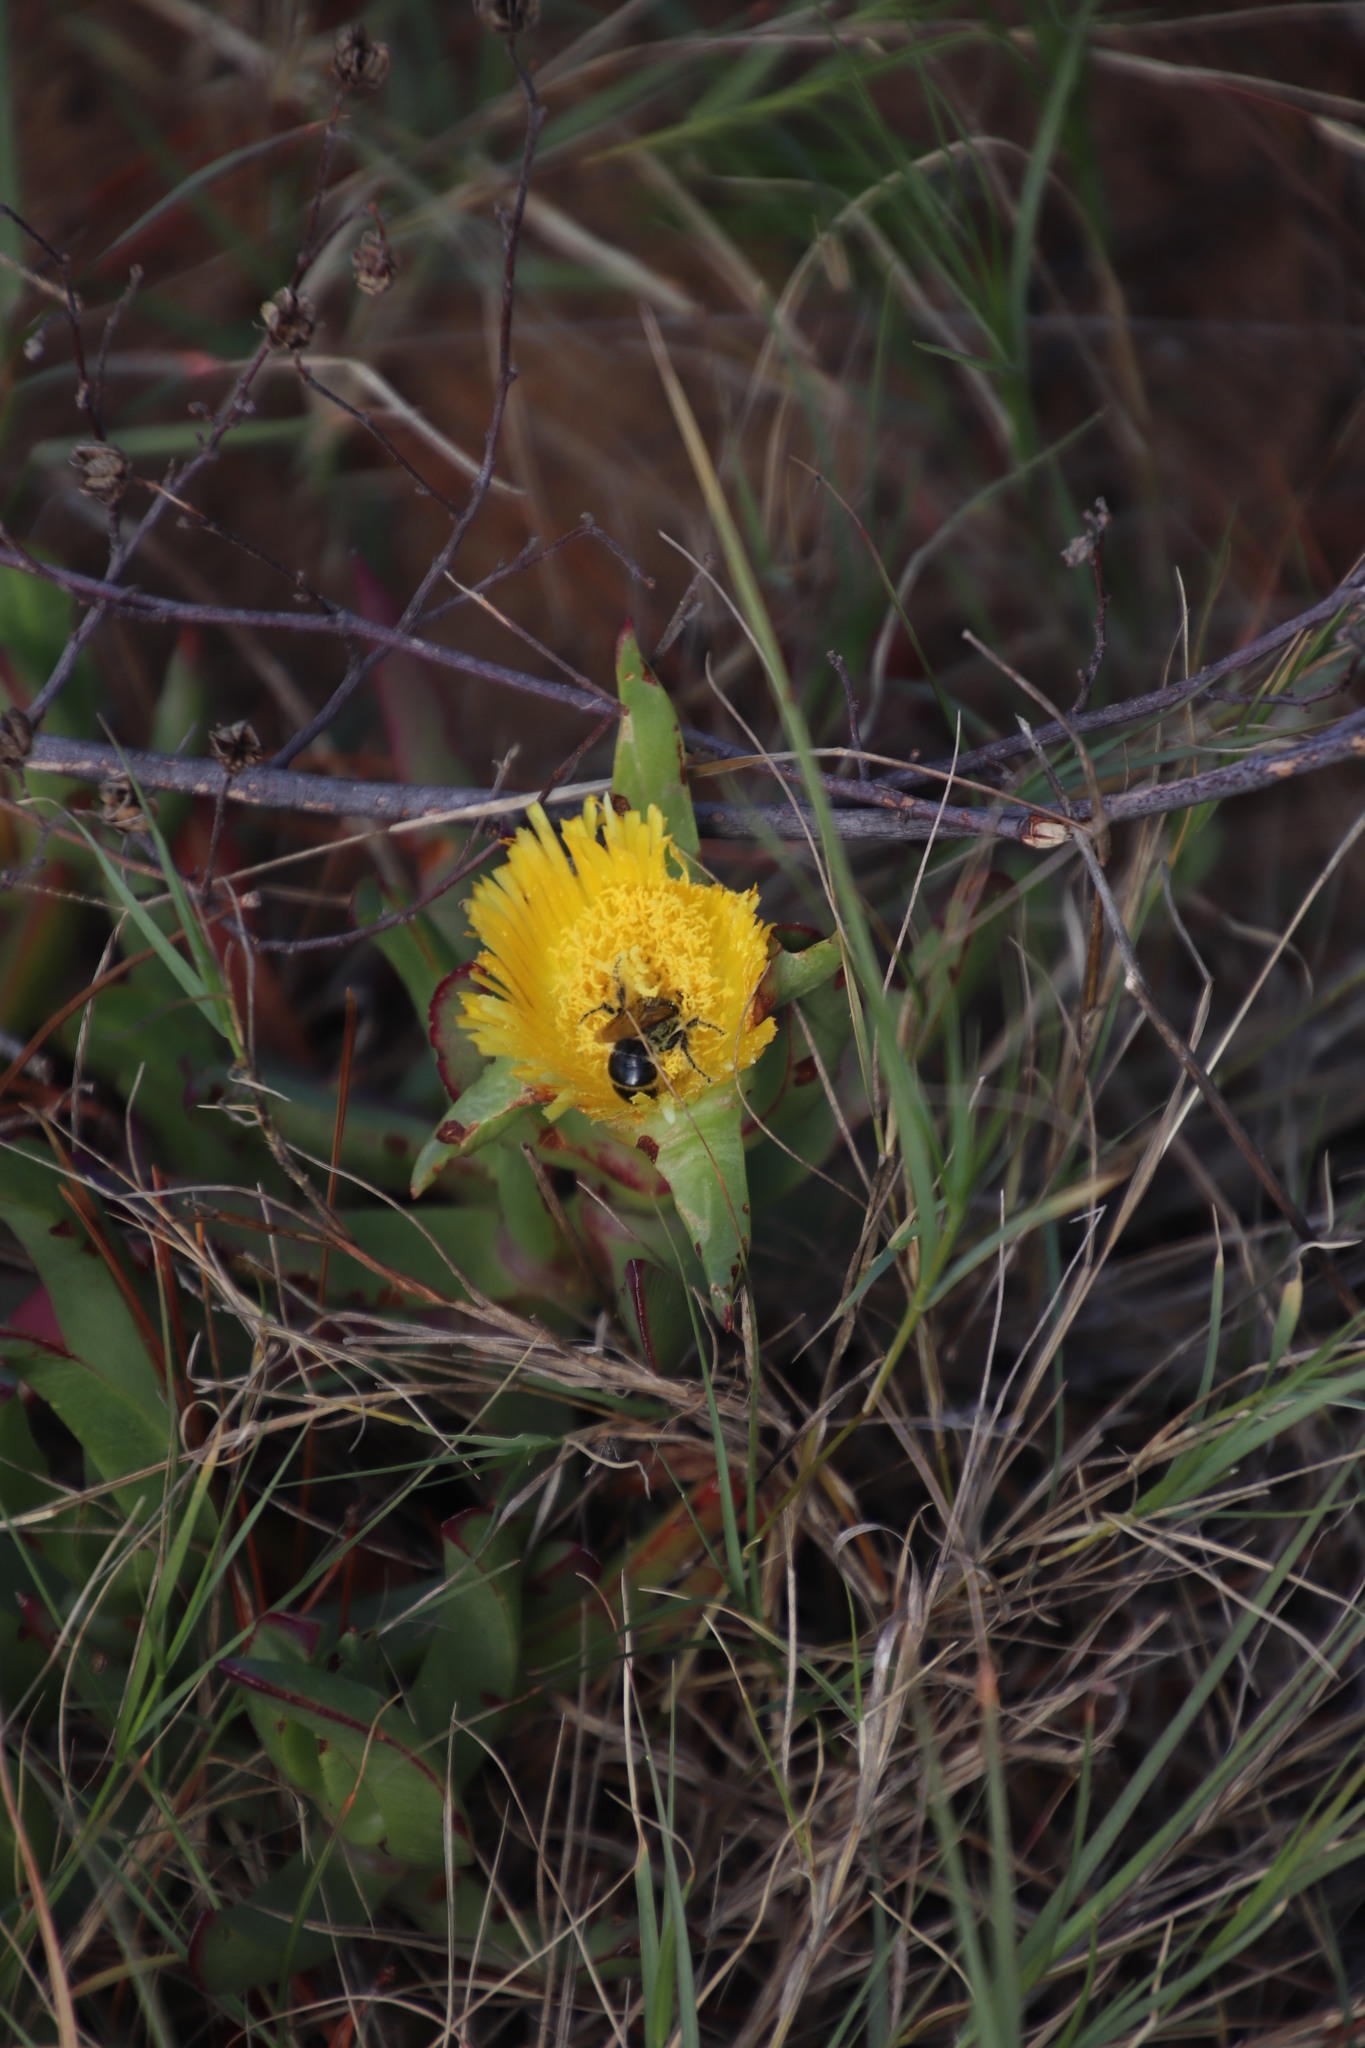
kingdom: Plantae
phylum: Tracheophyta
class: Magnoliopsida
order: Caryophyllales
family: Aizoaceae
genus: Carpobrotus
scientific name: Carpobrotus edulis
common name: Hottentot-fig
